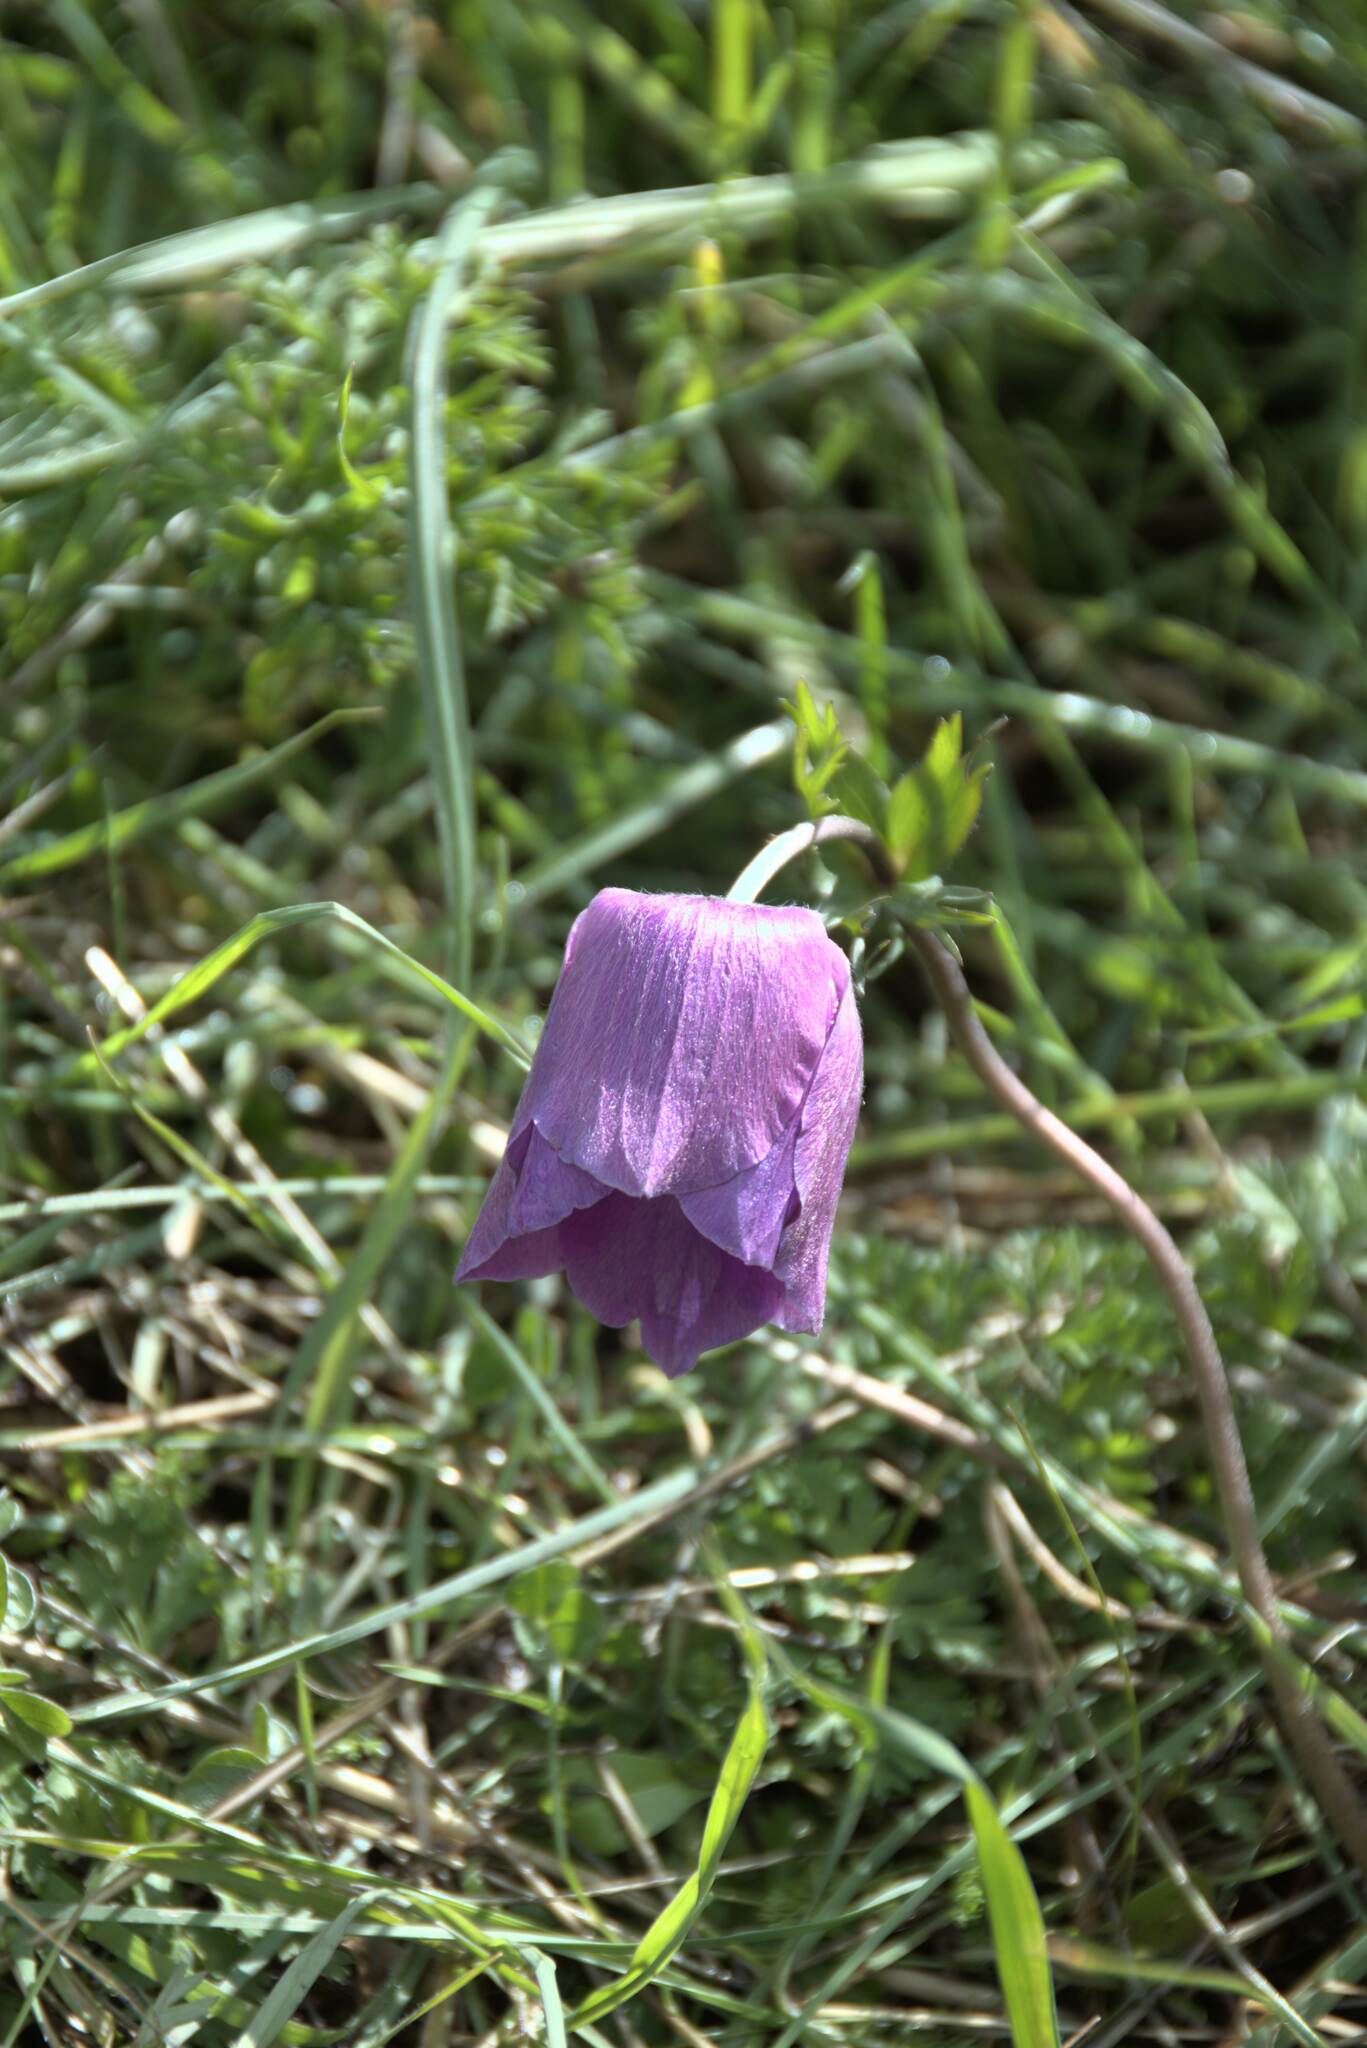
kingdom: Plantae
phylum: Tracheophyta
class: Magnoliopsida
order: Ranunculales
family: Ranunculaceae
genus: Anemone
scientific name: Anemone coronaria
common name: Poppy anemone
